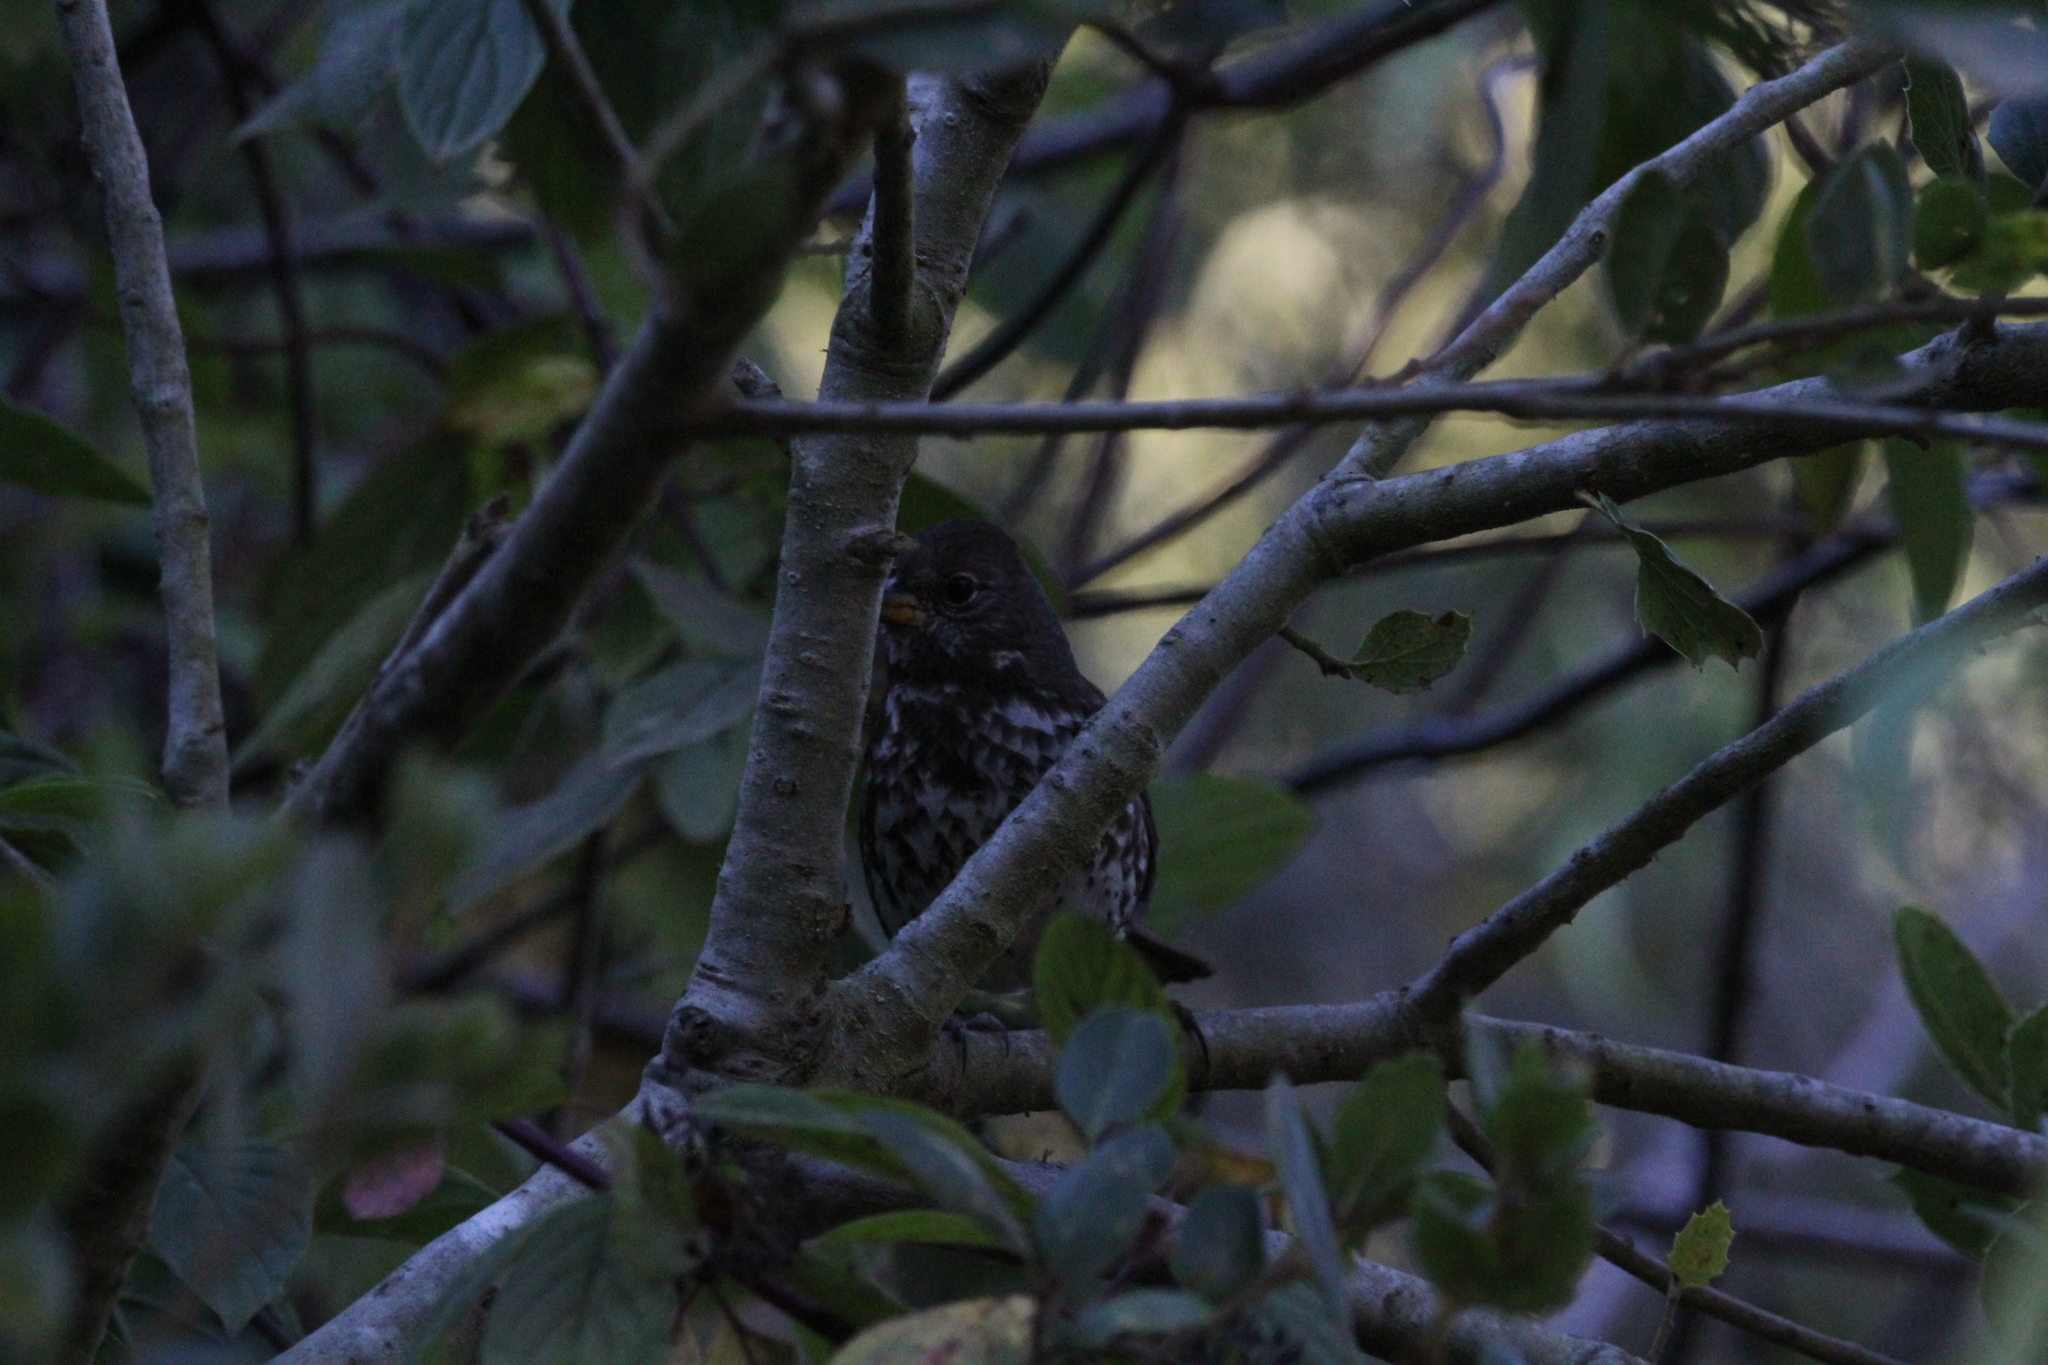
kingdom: Animalia
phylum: Chordata
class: Aves
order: Passeriformes
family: Passerellidae
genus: Passerella
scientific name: Passerella iliaca
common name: Fox sparrow
